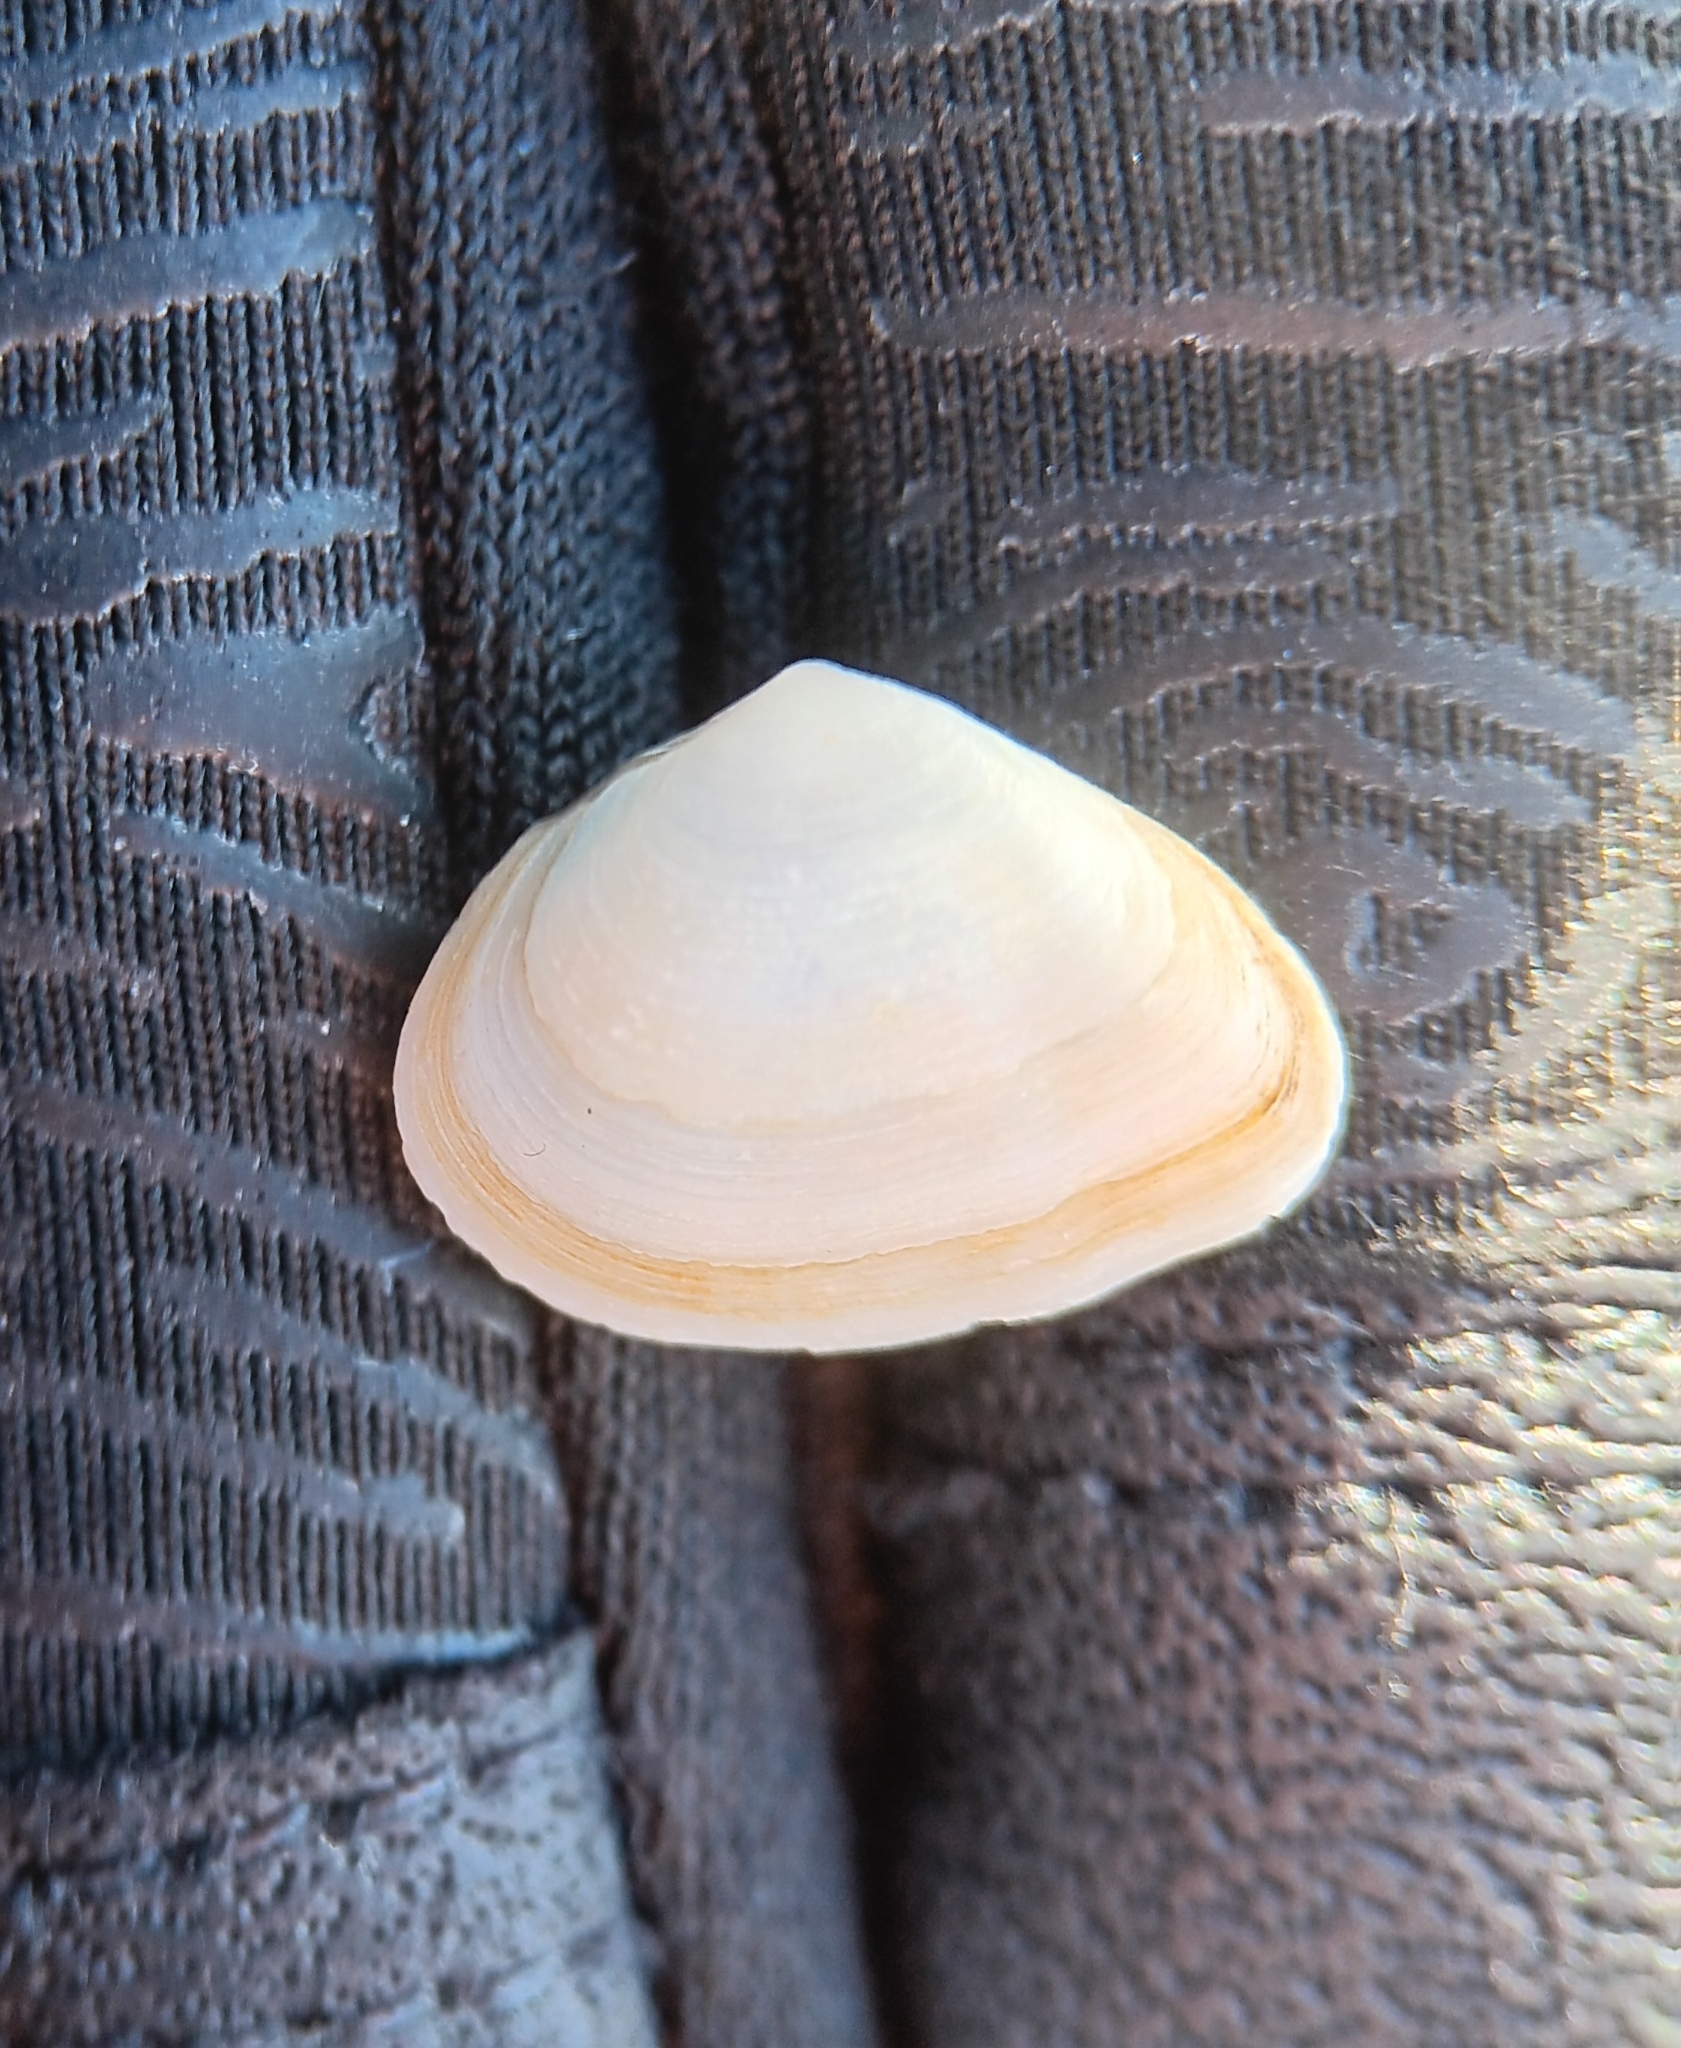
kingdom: Animalia
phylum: Mollusca
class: Bivalvia
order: Venerida
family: Mactridae
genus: Spisula
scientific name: Spisula solidissima
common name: Atlantic surf clam
